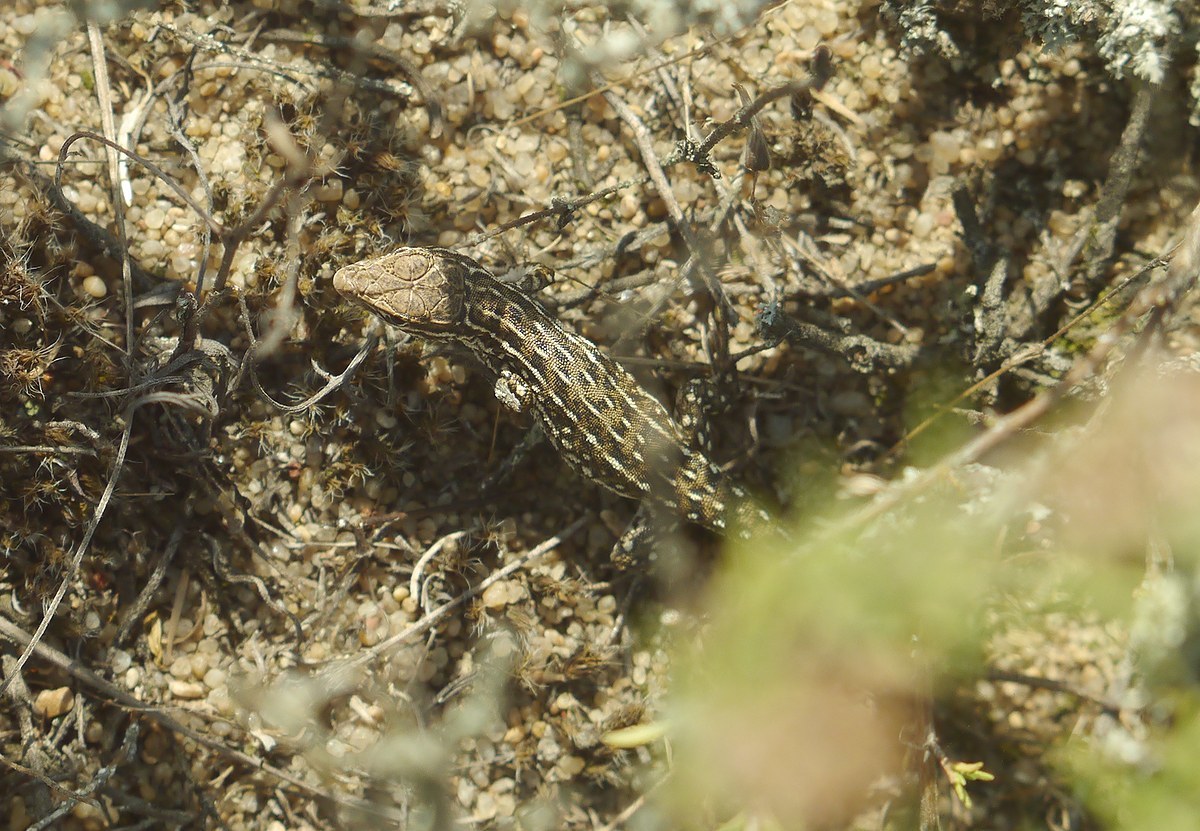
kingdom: Animalia
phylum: Chordata
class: Squamata
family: Lacertidae
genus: Eremias
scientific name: Eremias arguta
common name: Racerunner
